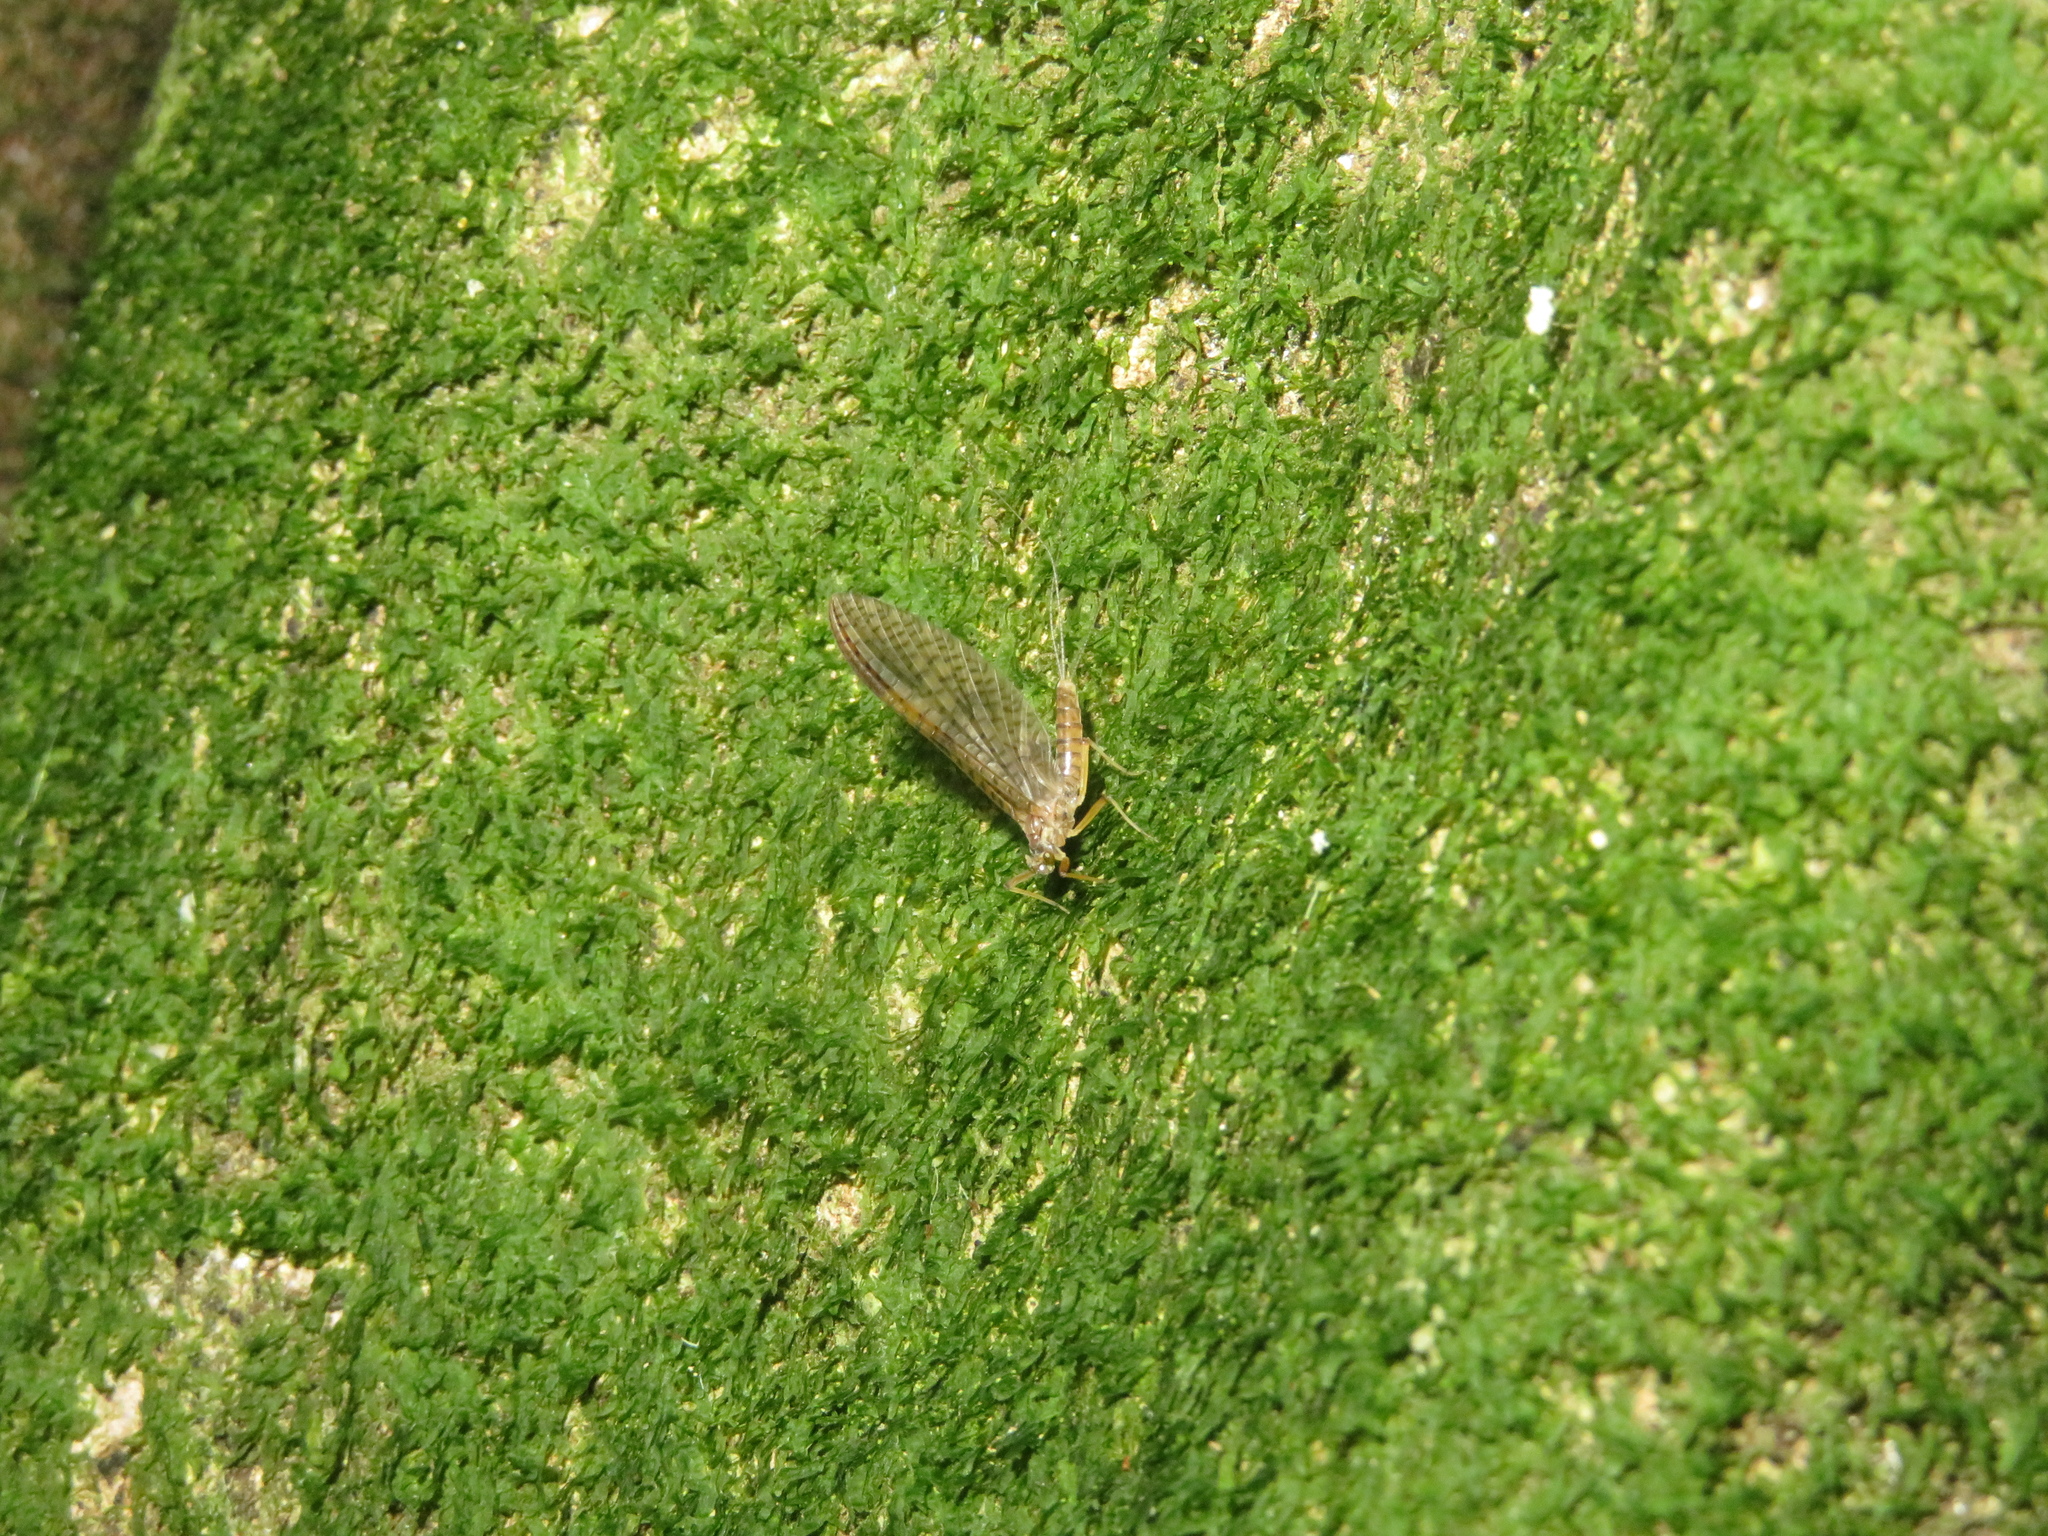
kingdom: Animalia
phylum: Arthropoda
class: Insecta
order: Ephemeroptera
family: Leptophlebiidae
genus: Zephlebia
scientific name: Zephlebia dentata
